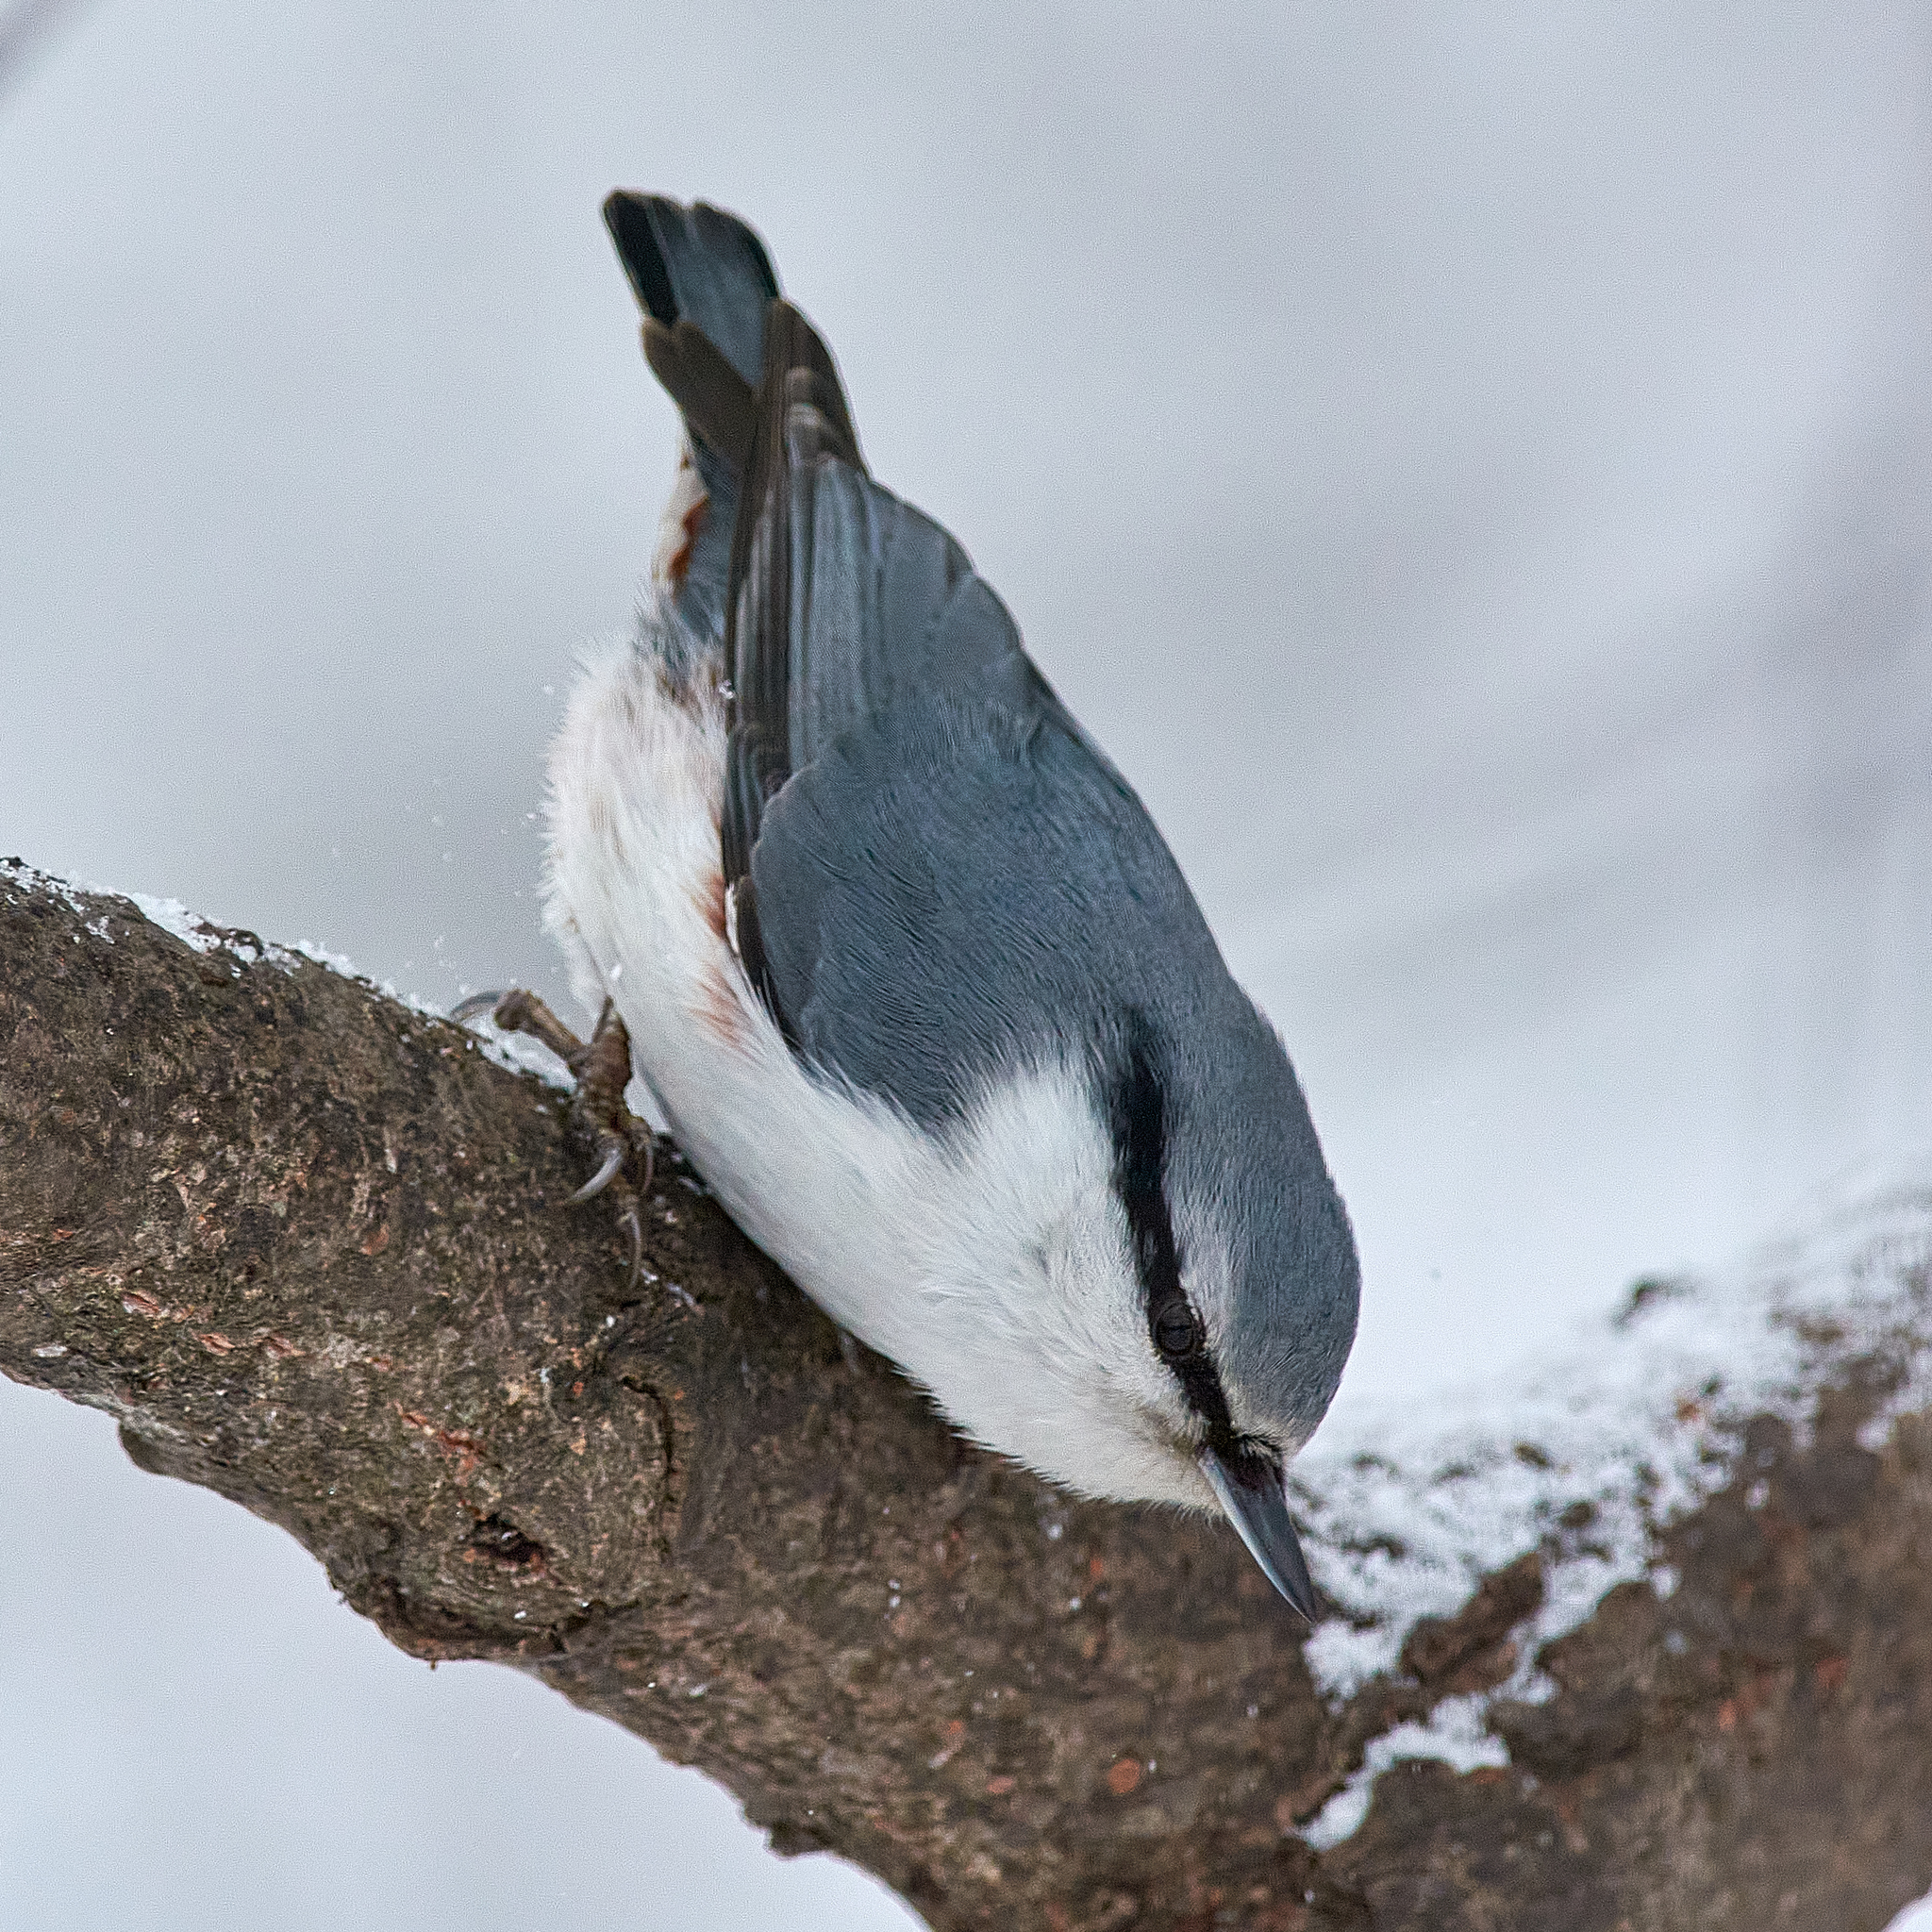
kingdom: Animalia
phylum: Chordata
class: Aves
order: Passeriformes
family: Sittidae
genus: Sitta
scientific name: Sitta europaea
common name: Eurasian nuthatch
